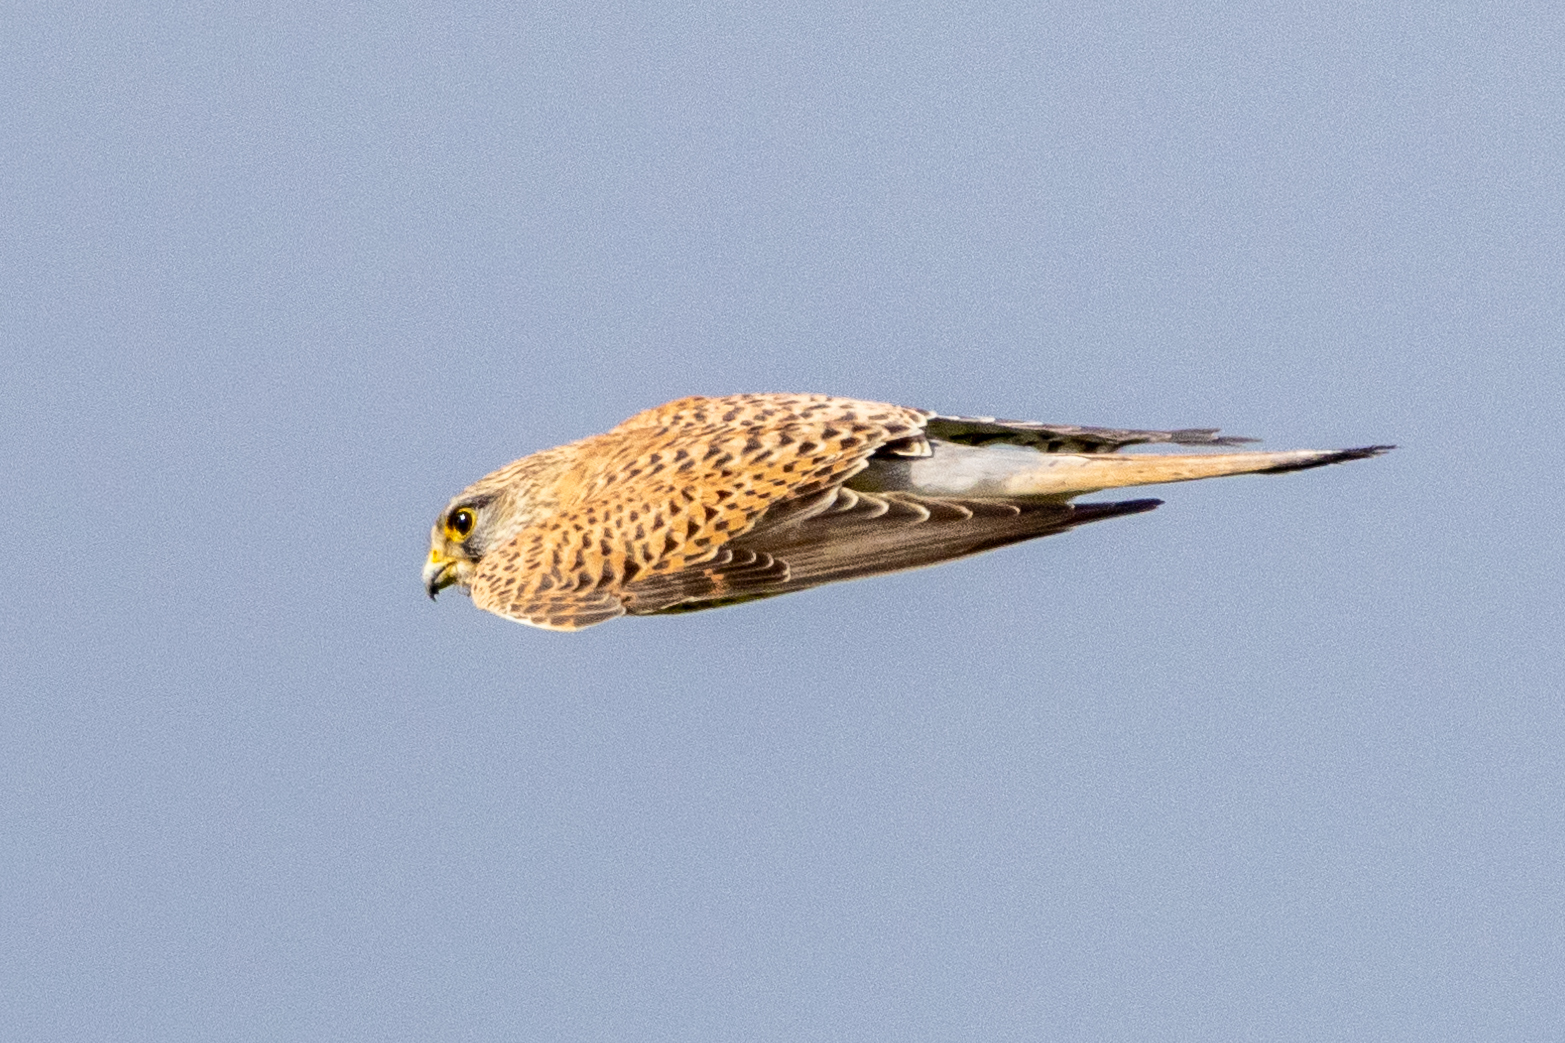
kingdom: Animalia
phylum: Chordata
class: Aves
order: Falconiformes
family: Falconidae
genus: Falco
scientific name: Falco tinnunculus
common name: Common kestrel
